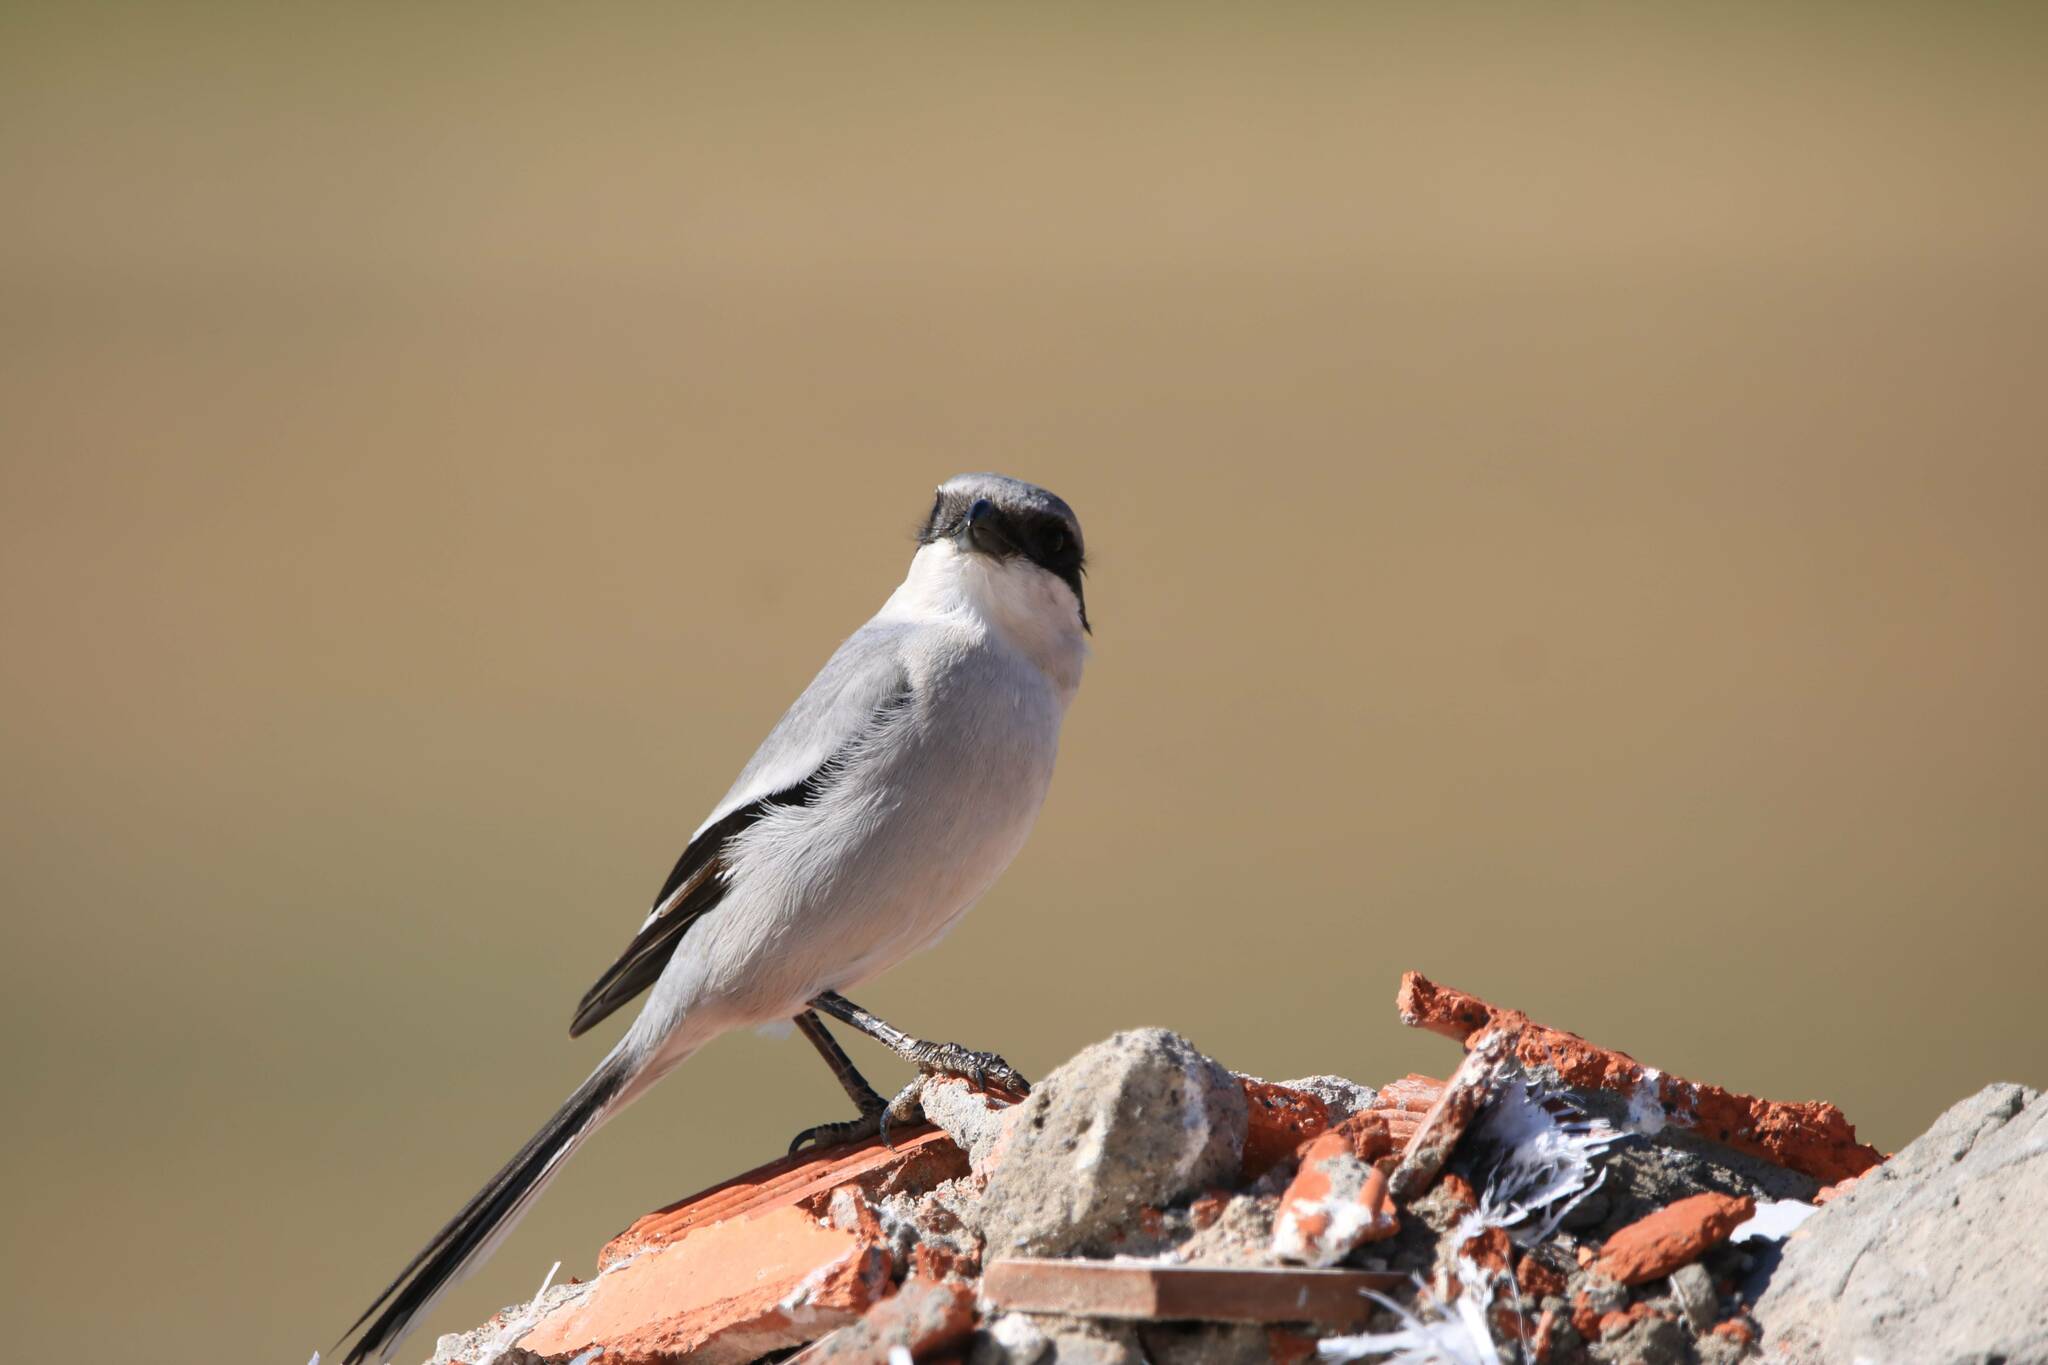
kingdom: Animalia
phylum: Chordata
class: Aves
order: Passeriformes
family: Laniidae
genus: Lanius
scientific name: Lanius excubitor
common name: Great grey shrike
